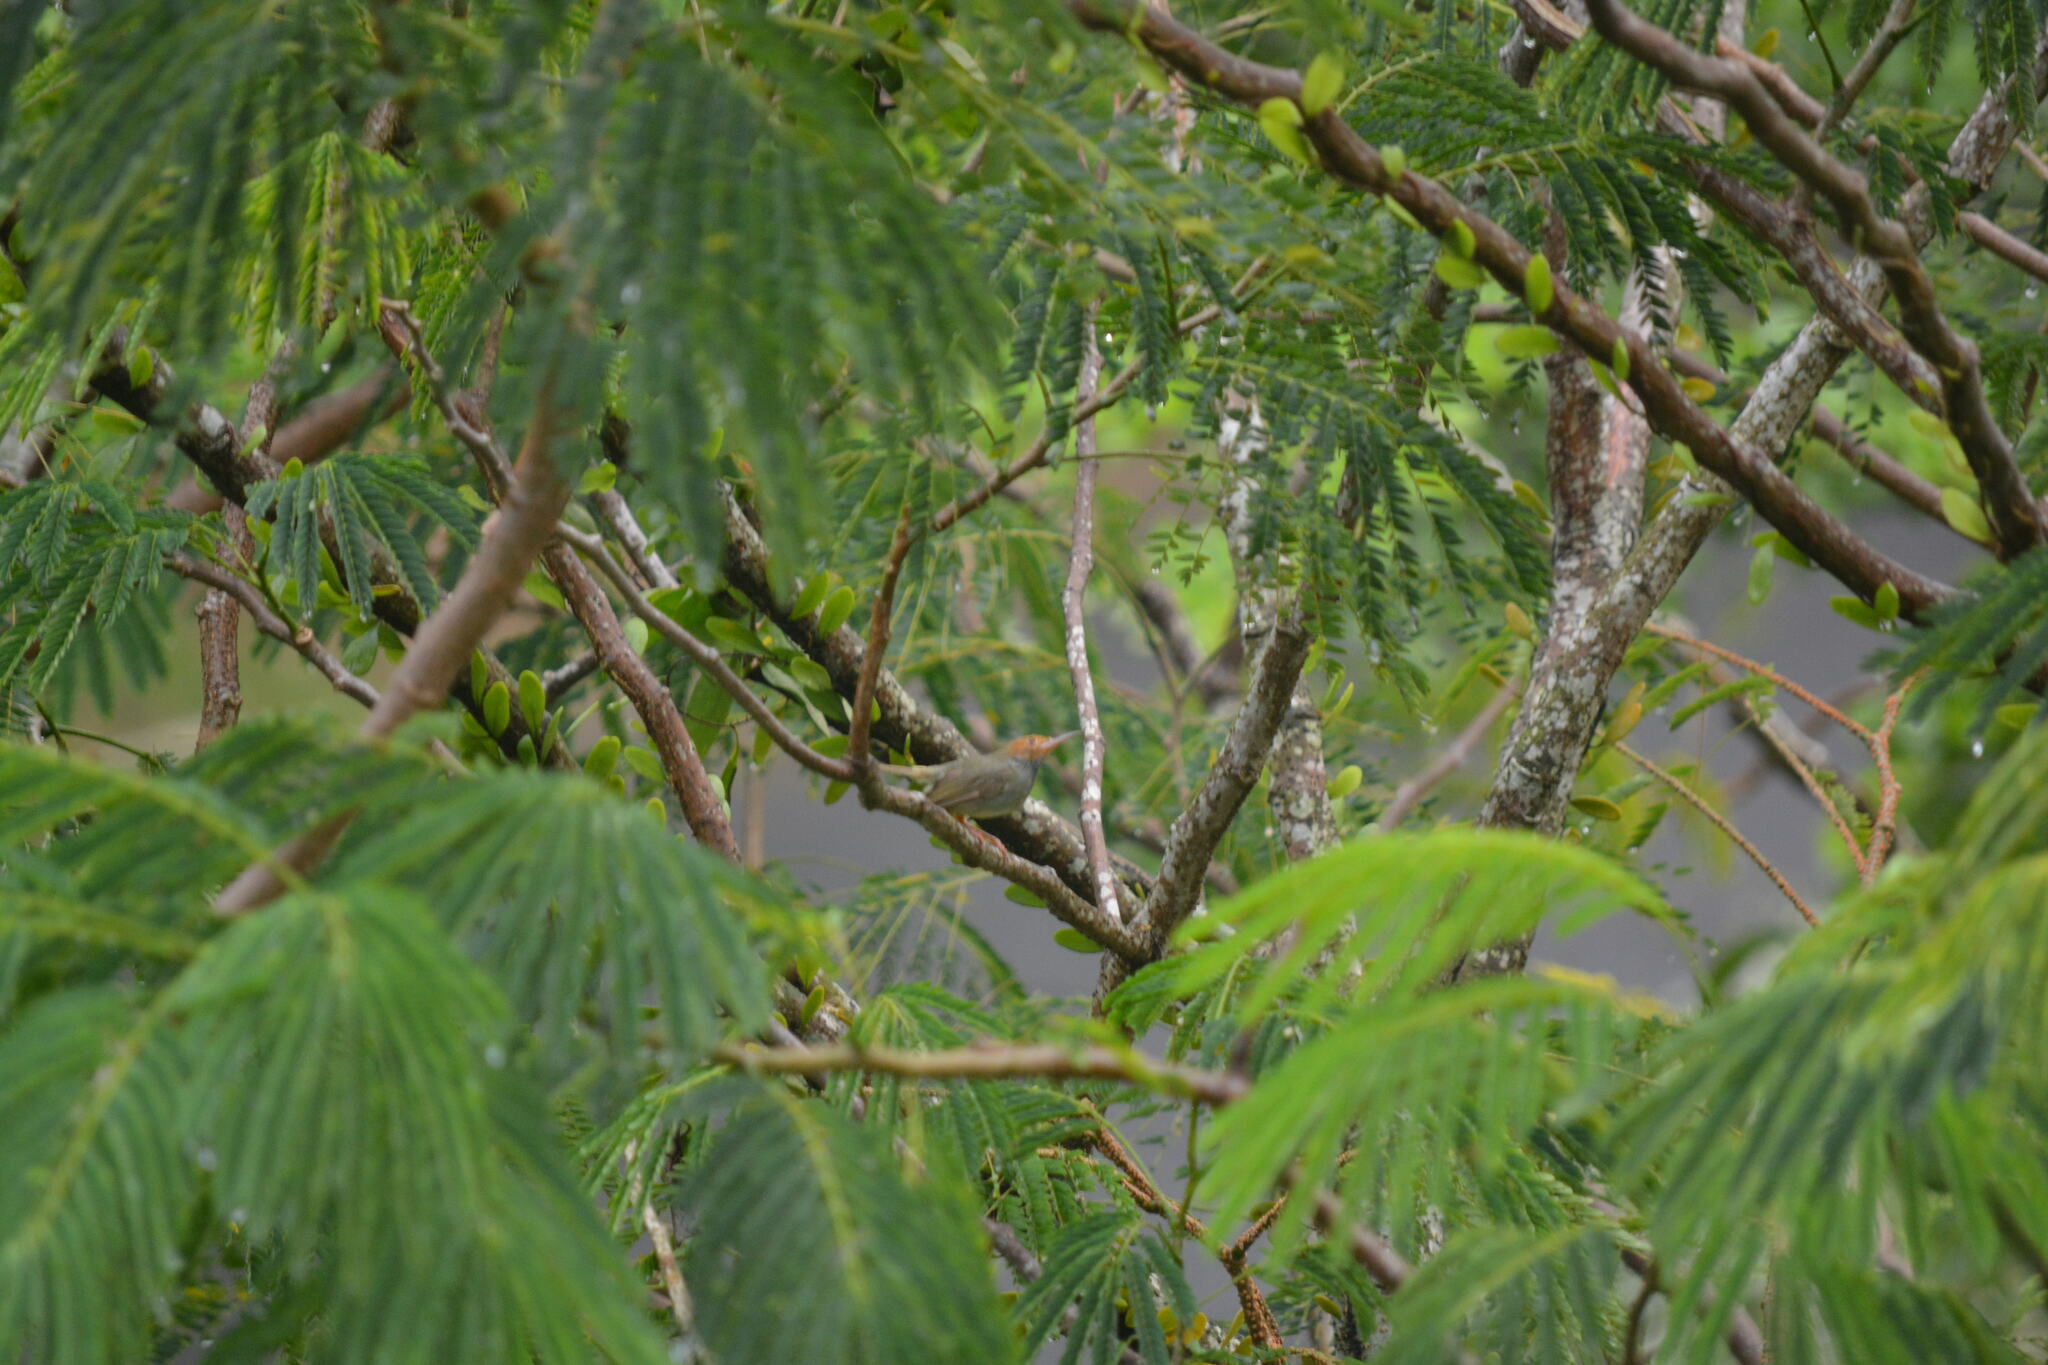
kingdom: Animalia
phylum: Chordata
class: Aves
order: Passeriformes
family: Cisticolidae
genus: Orthotomus
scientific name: Orthotomus sepium
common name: Olive-backed tailorbird
